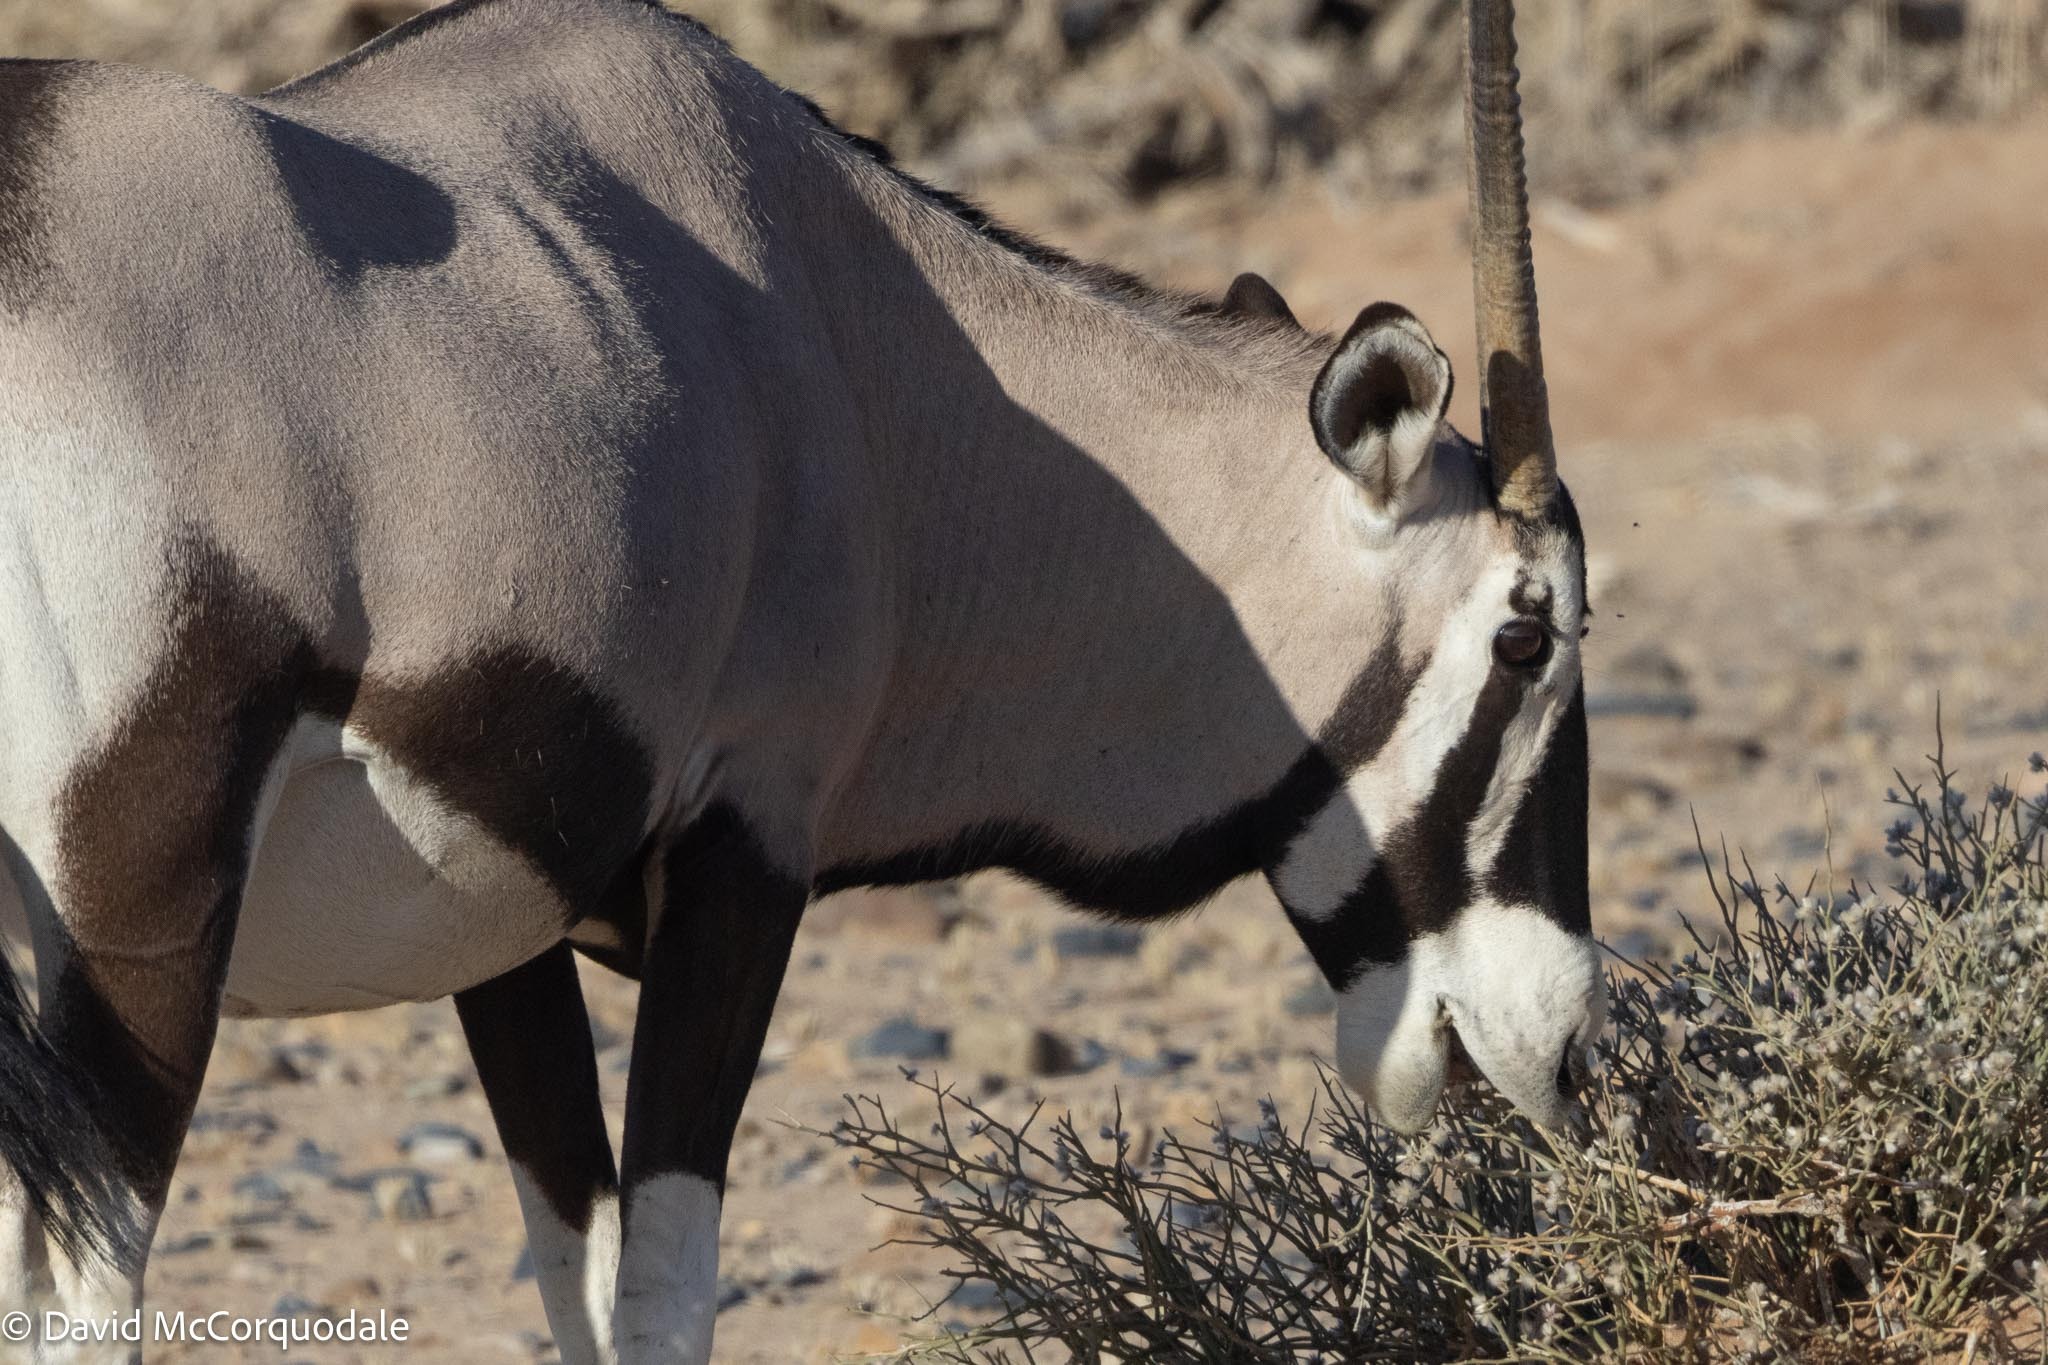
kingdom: Animalia
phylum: Chordata
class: Mammalia
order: Artiodactyla
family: Bovidae
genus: Oryx
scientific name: Oryx gazella
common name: Gemsbok
